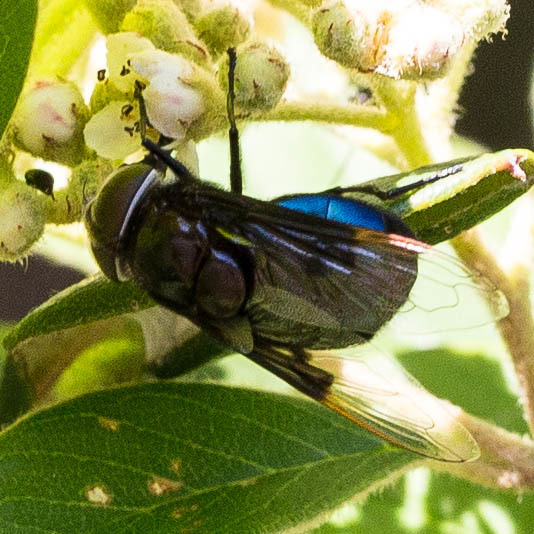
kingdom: Animalia
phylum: Arthropoda
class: Insecta
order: Diptera
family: Syrphidae
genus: Copestylum
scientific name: Copestylum
